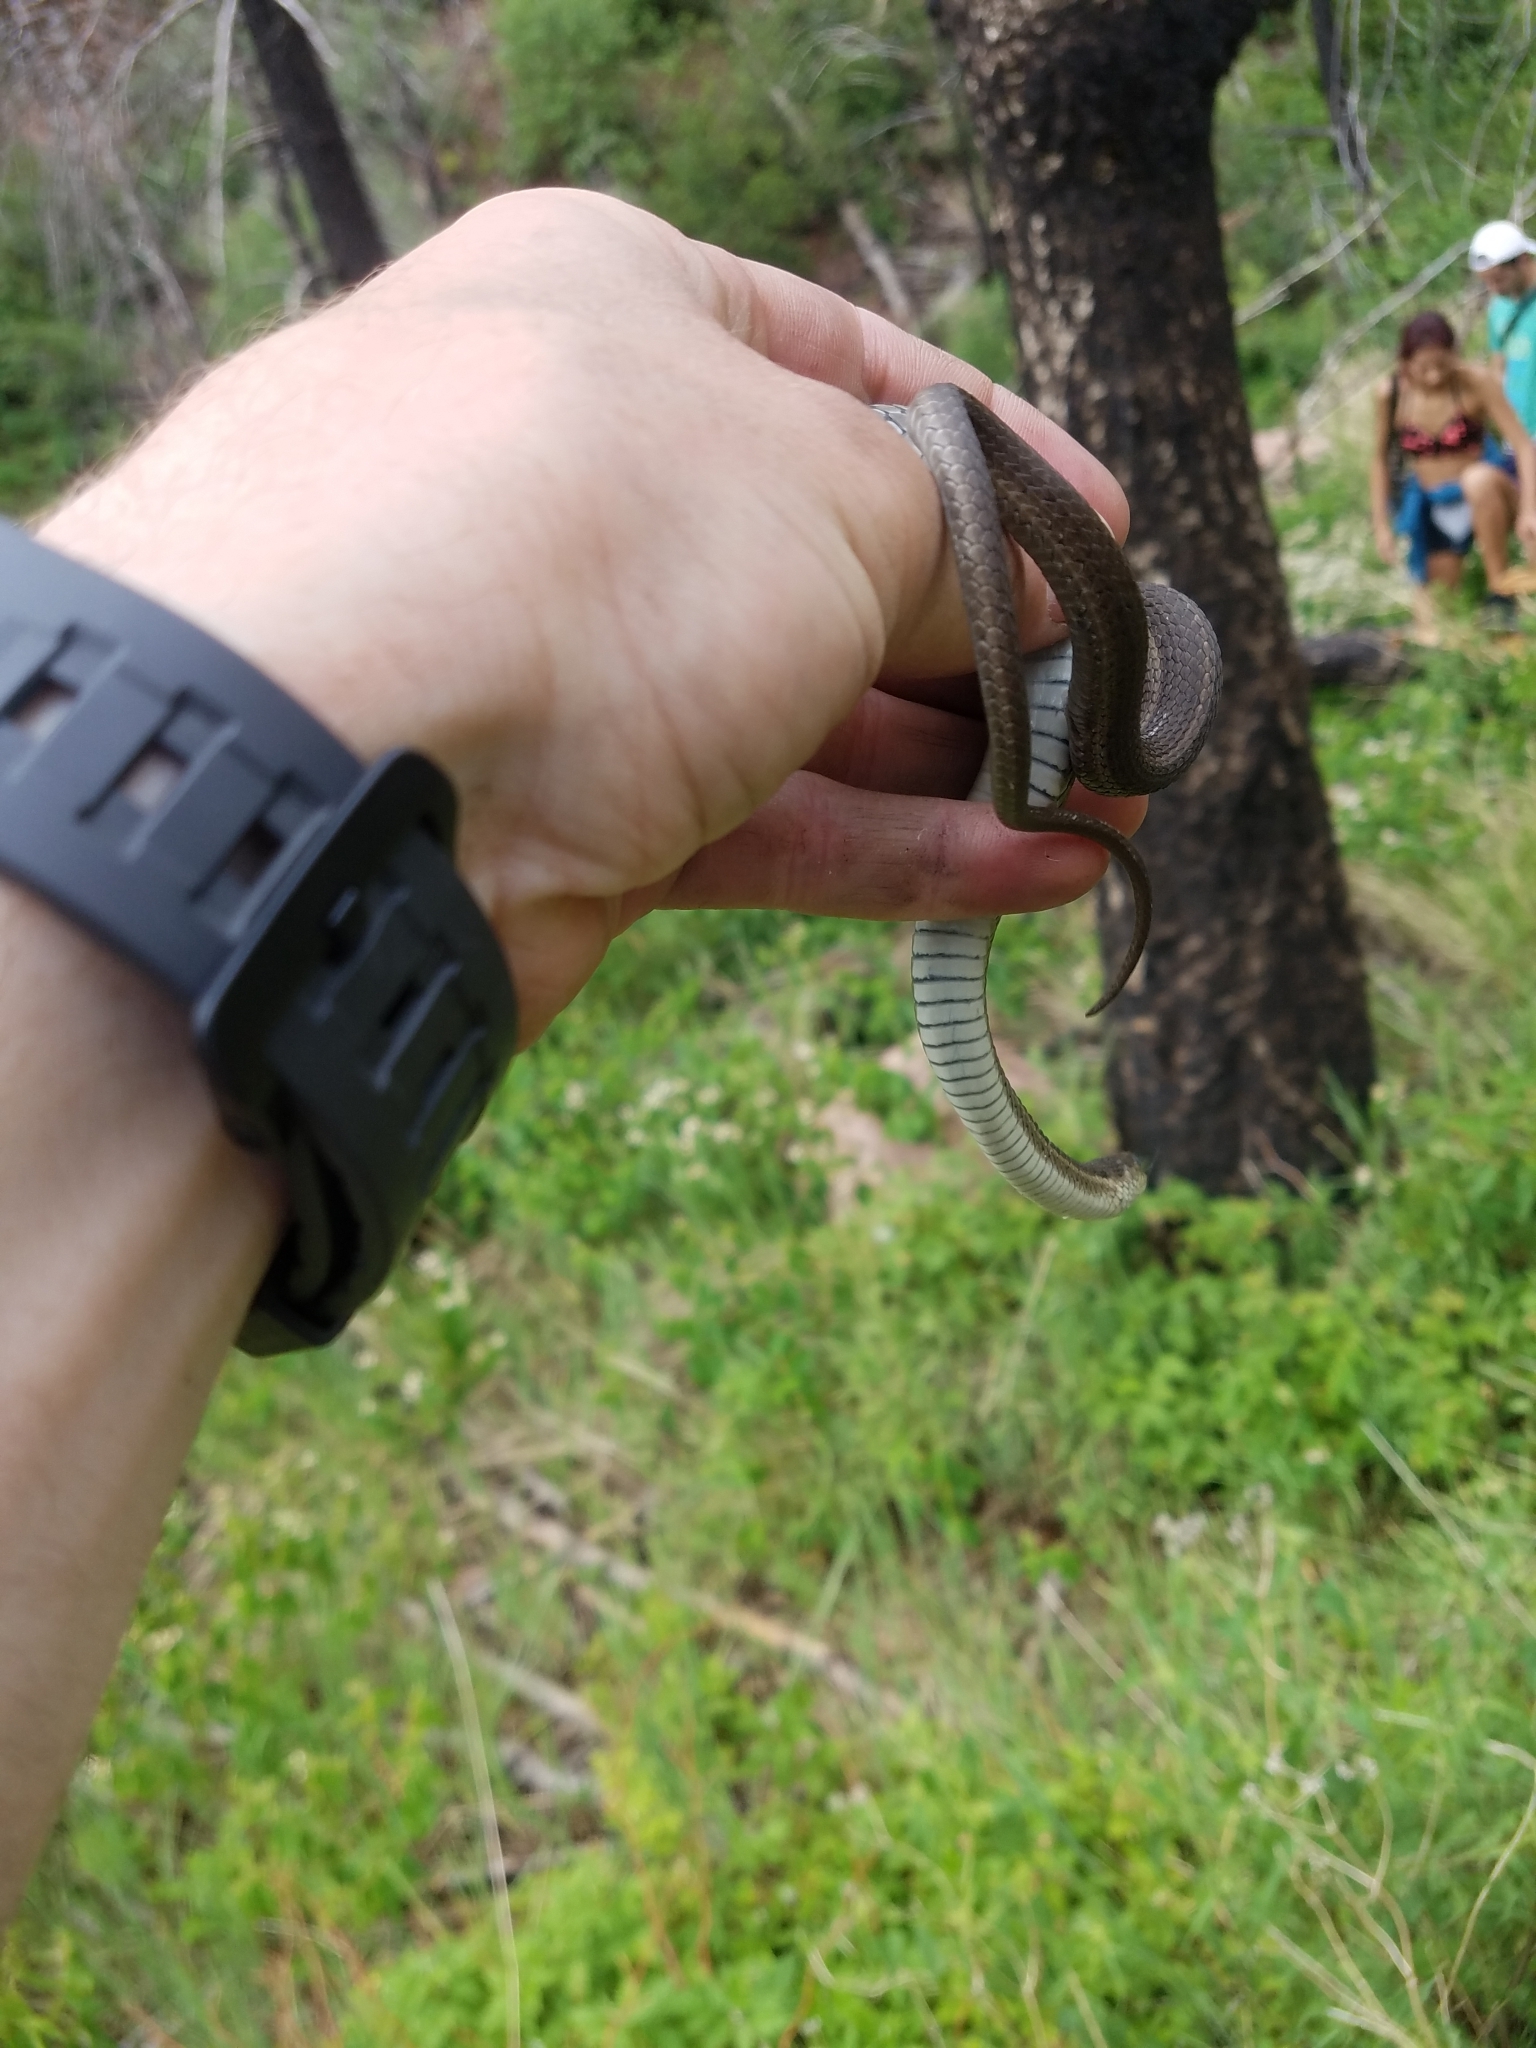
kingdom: Animalia
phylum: Chordata
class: Squamata
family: Colubridae
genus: Thamnophis
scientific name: Thamnophis elegans
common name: Western terrestrial garter snake
